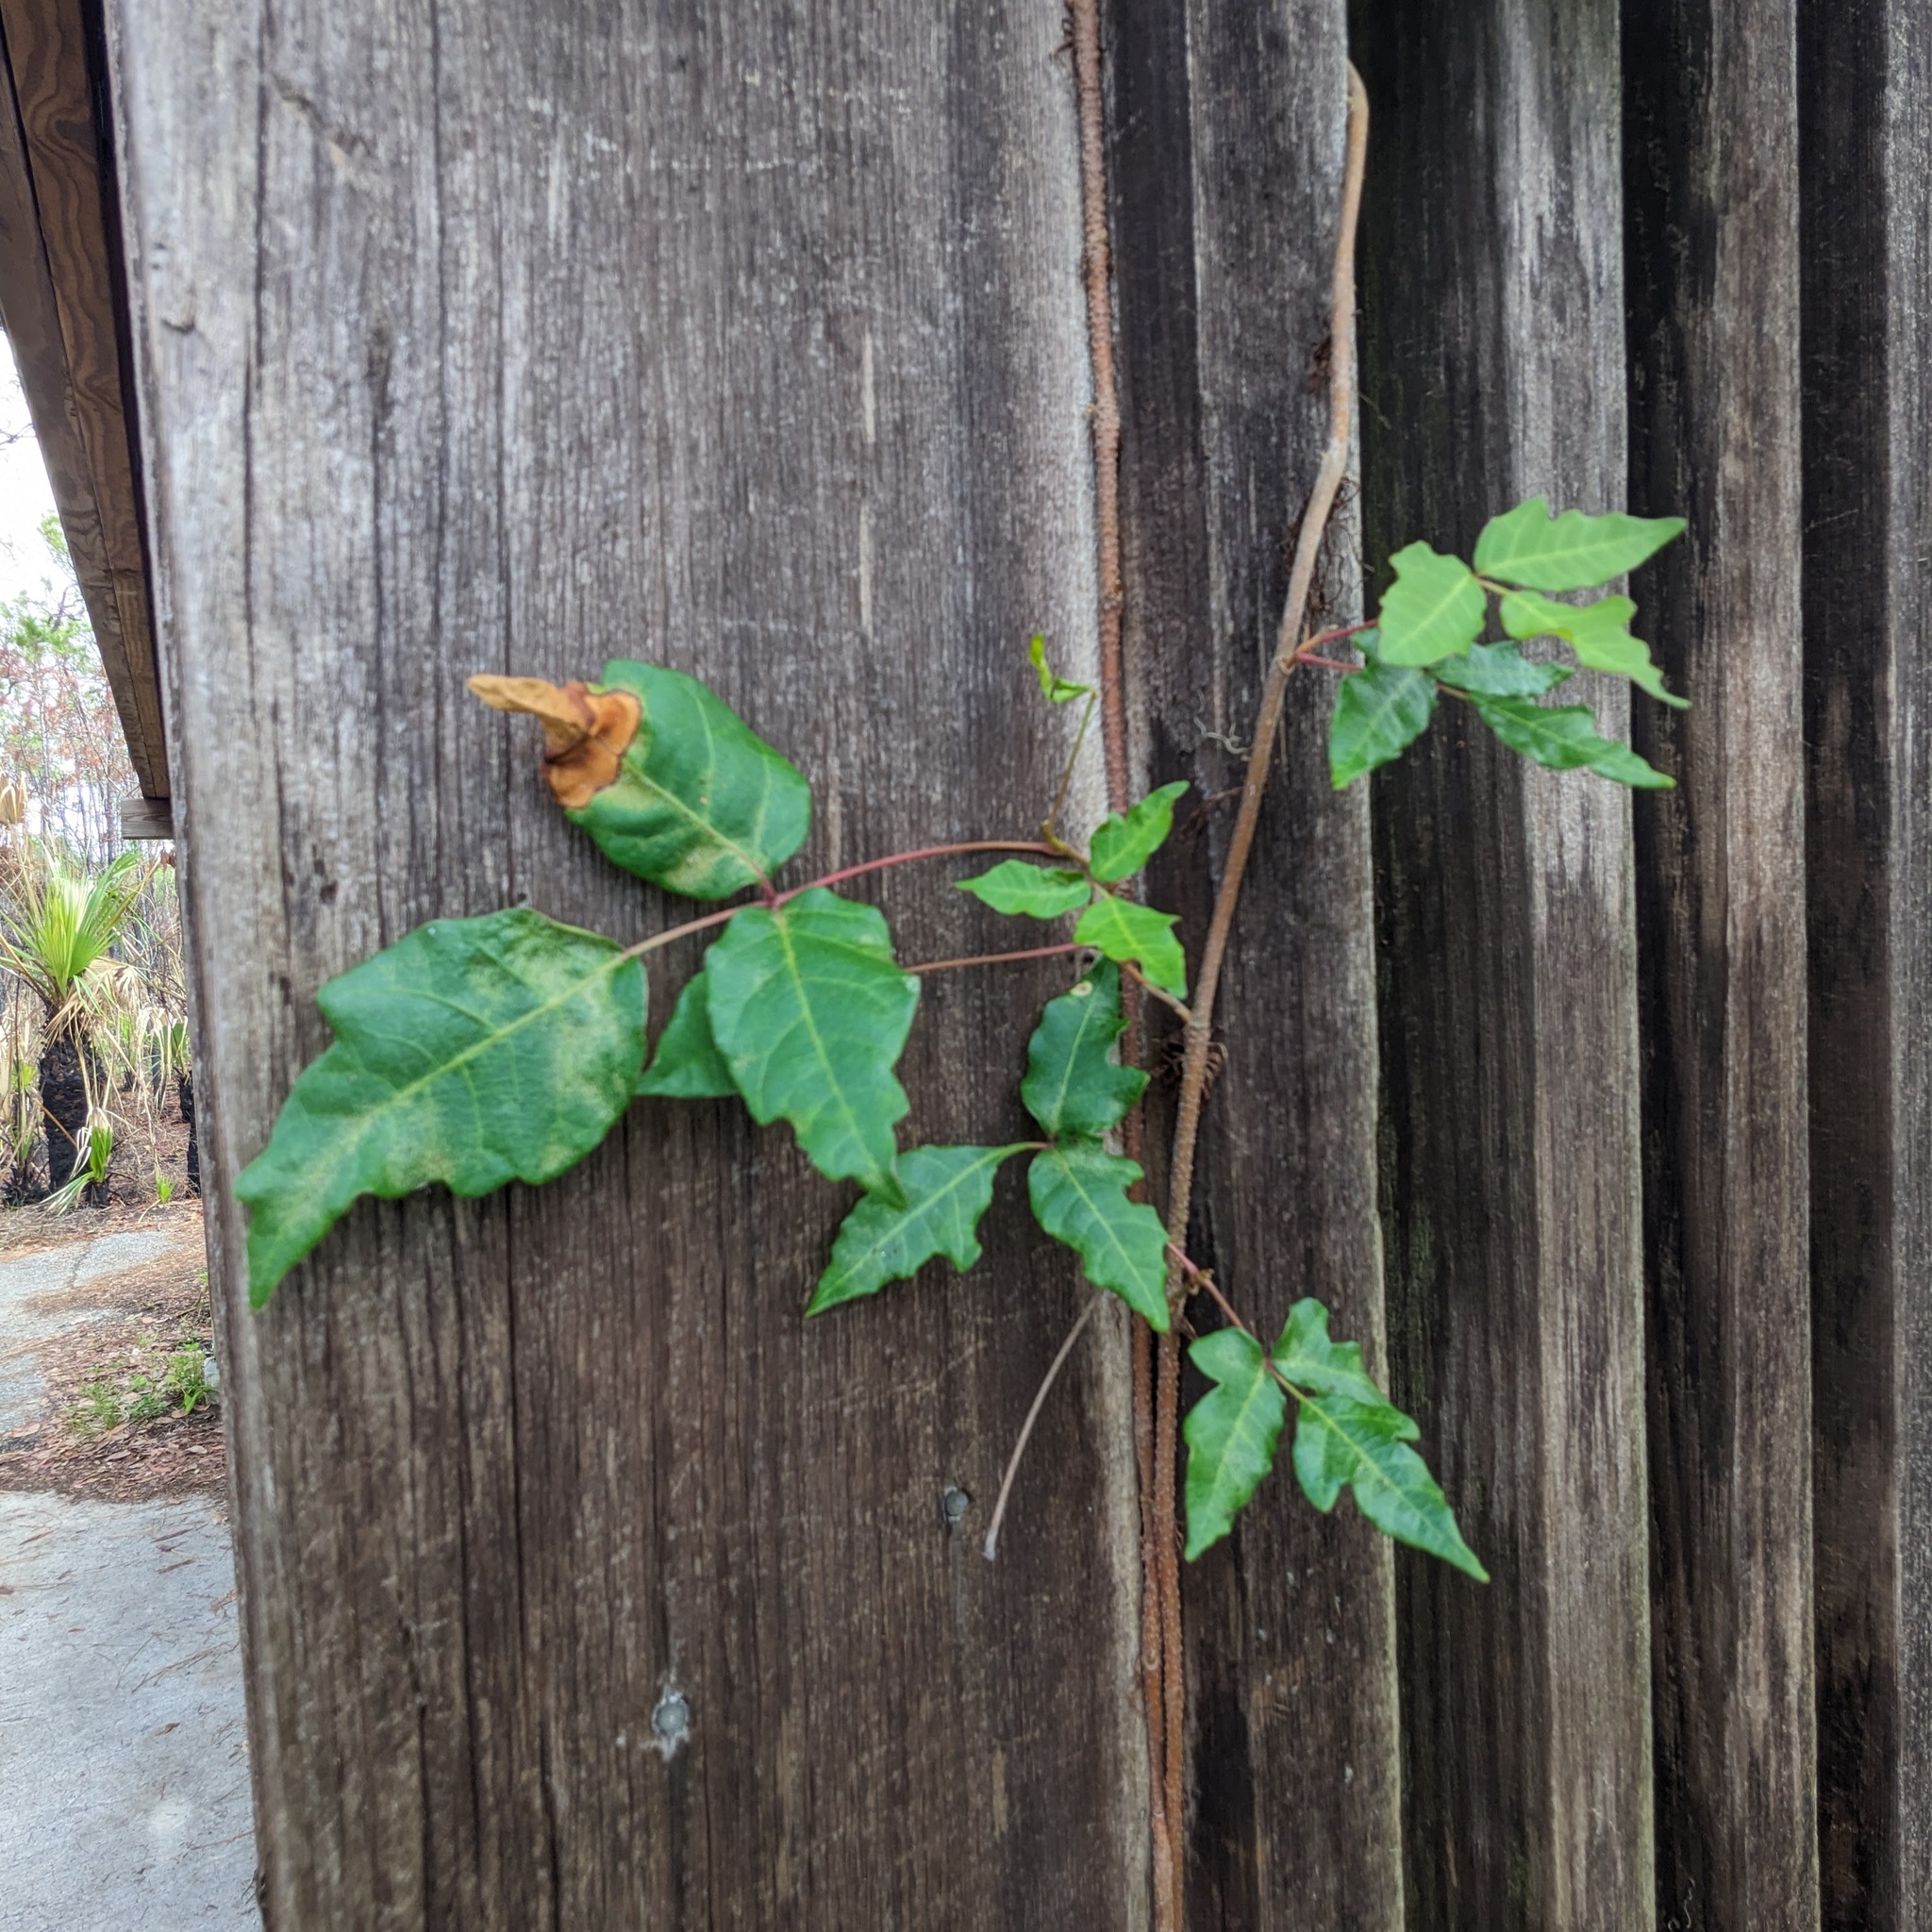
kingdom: Plantae
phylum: Tracheophyta
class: Magnoliopsida
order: Sapindales
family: Anacardiaceae
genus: Toxicodendron
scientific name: Toxicodendron radicans
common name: Poison ivy
